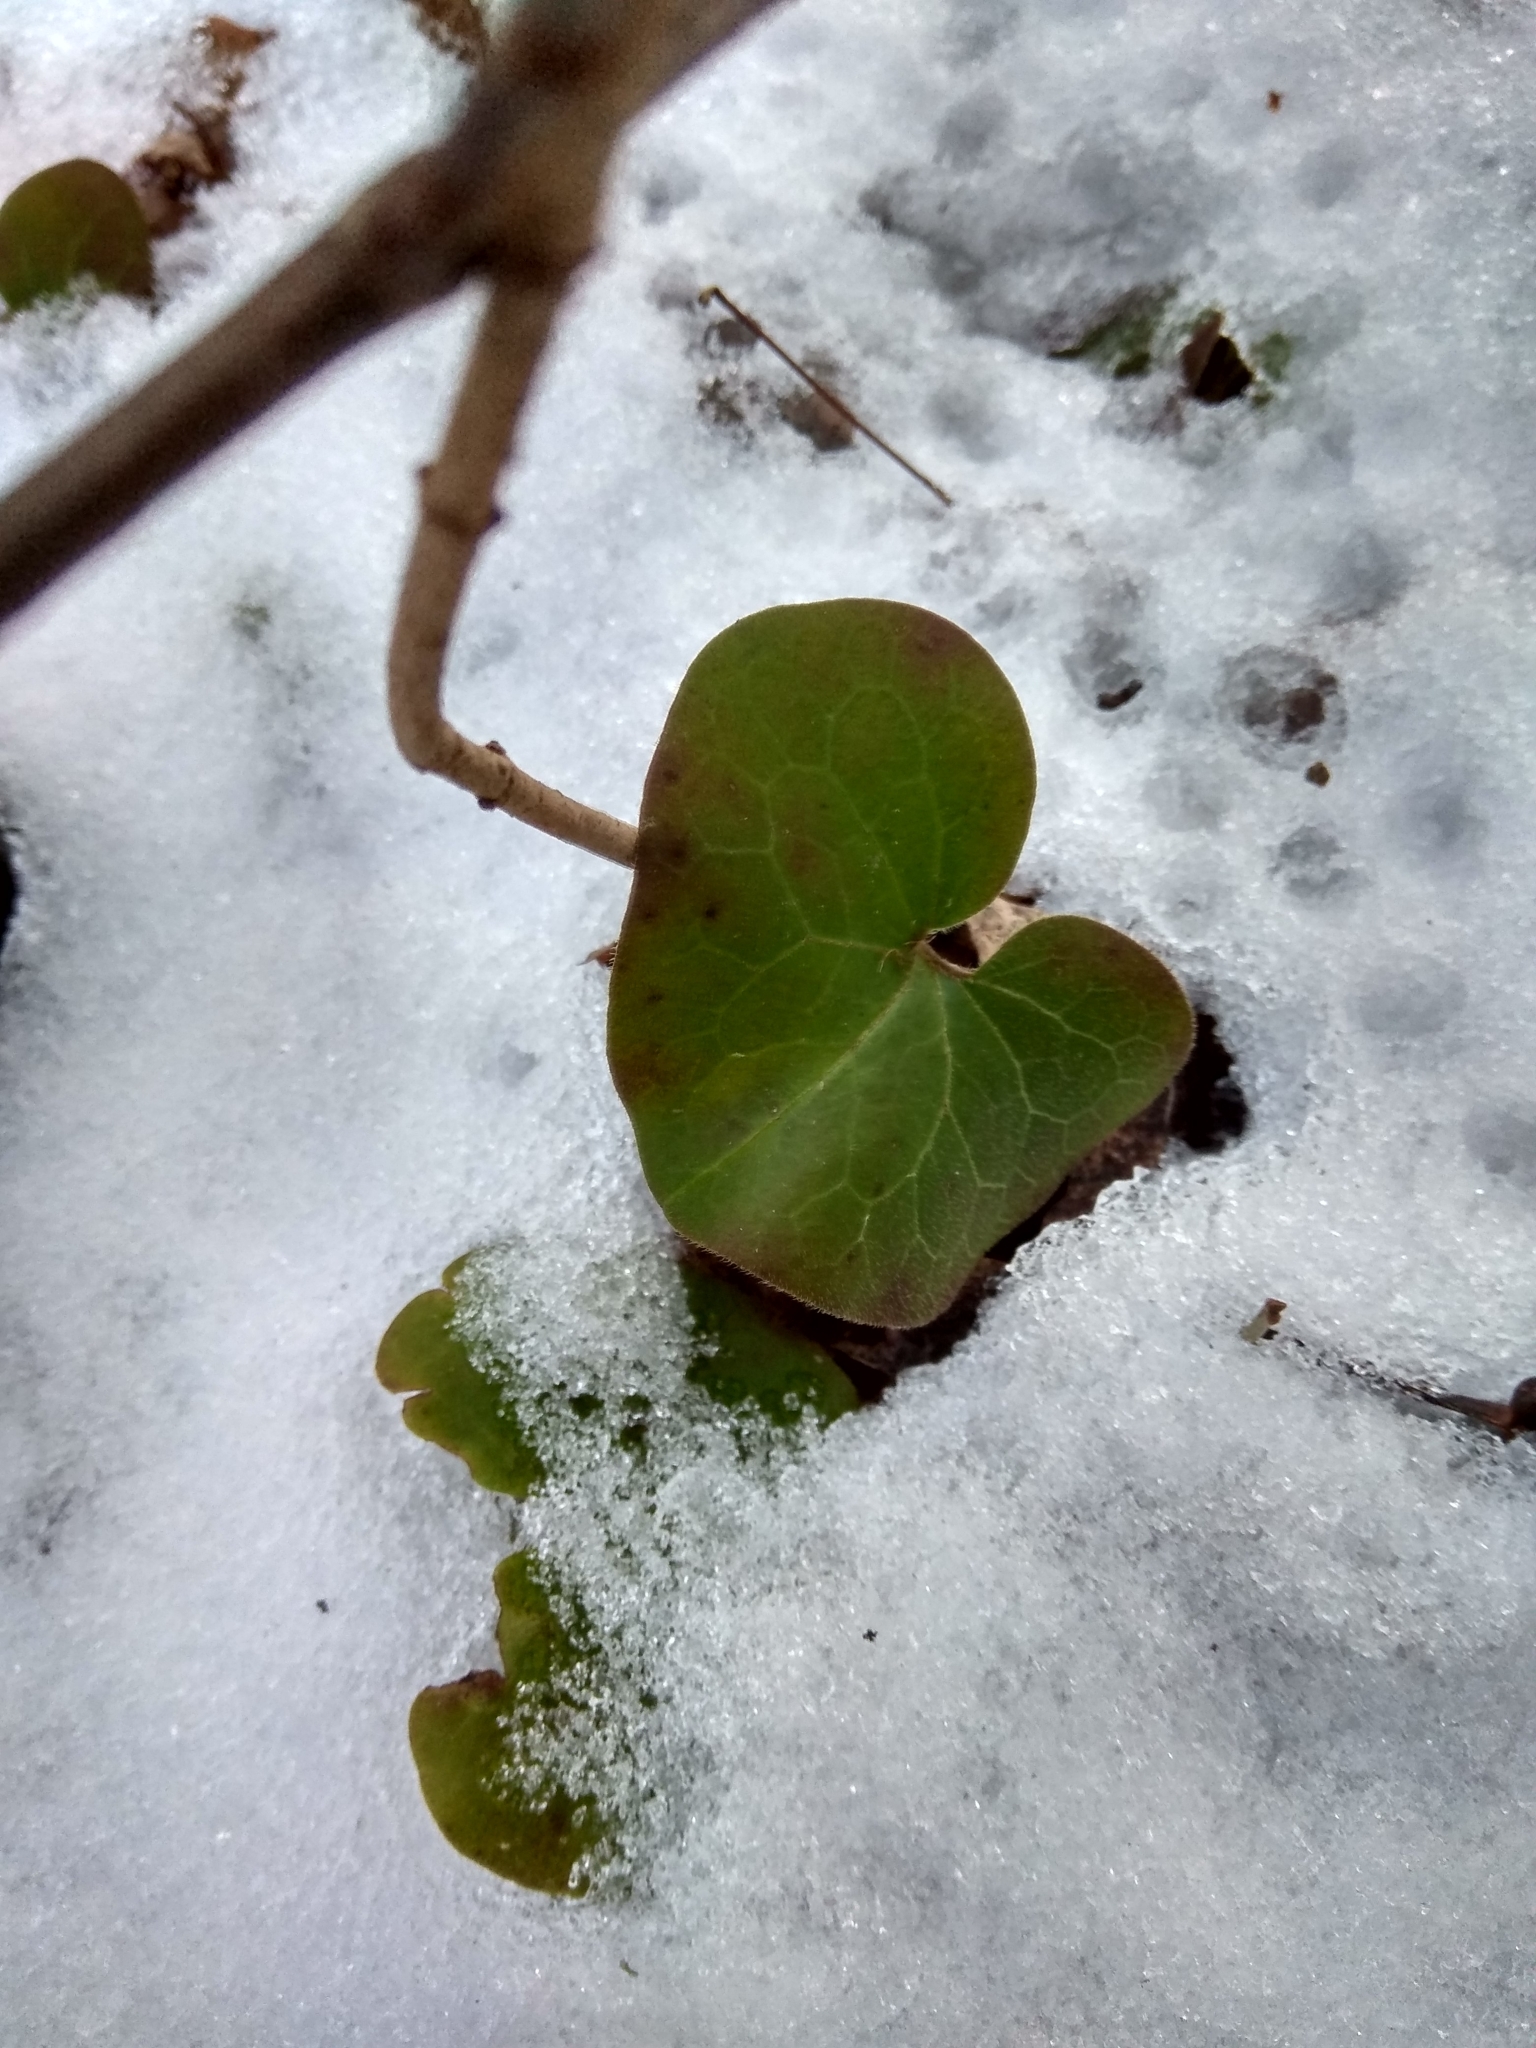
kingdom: Plantae
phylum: Tracheophyta
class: Magnoliopsida
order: Piperales
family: Aristolochiaceae
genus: Asarum
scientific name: Asarum europaeum
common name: Asarabacca
